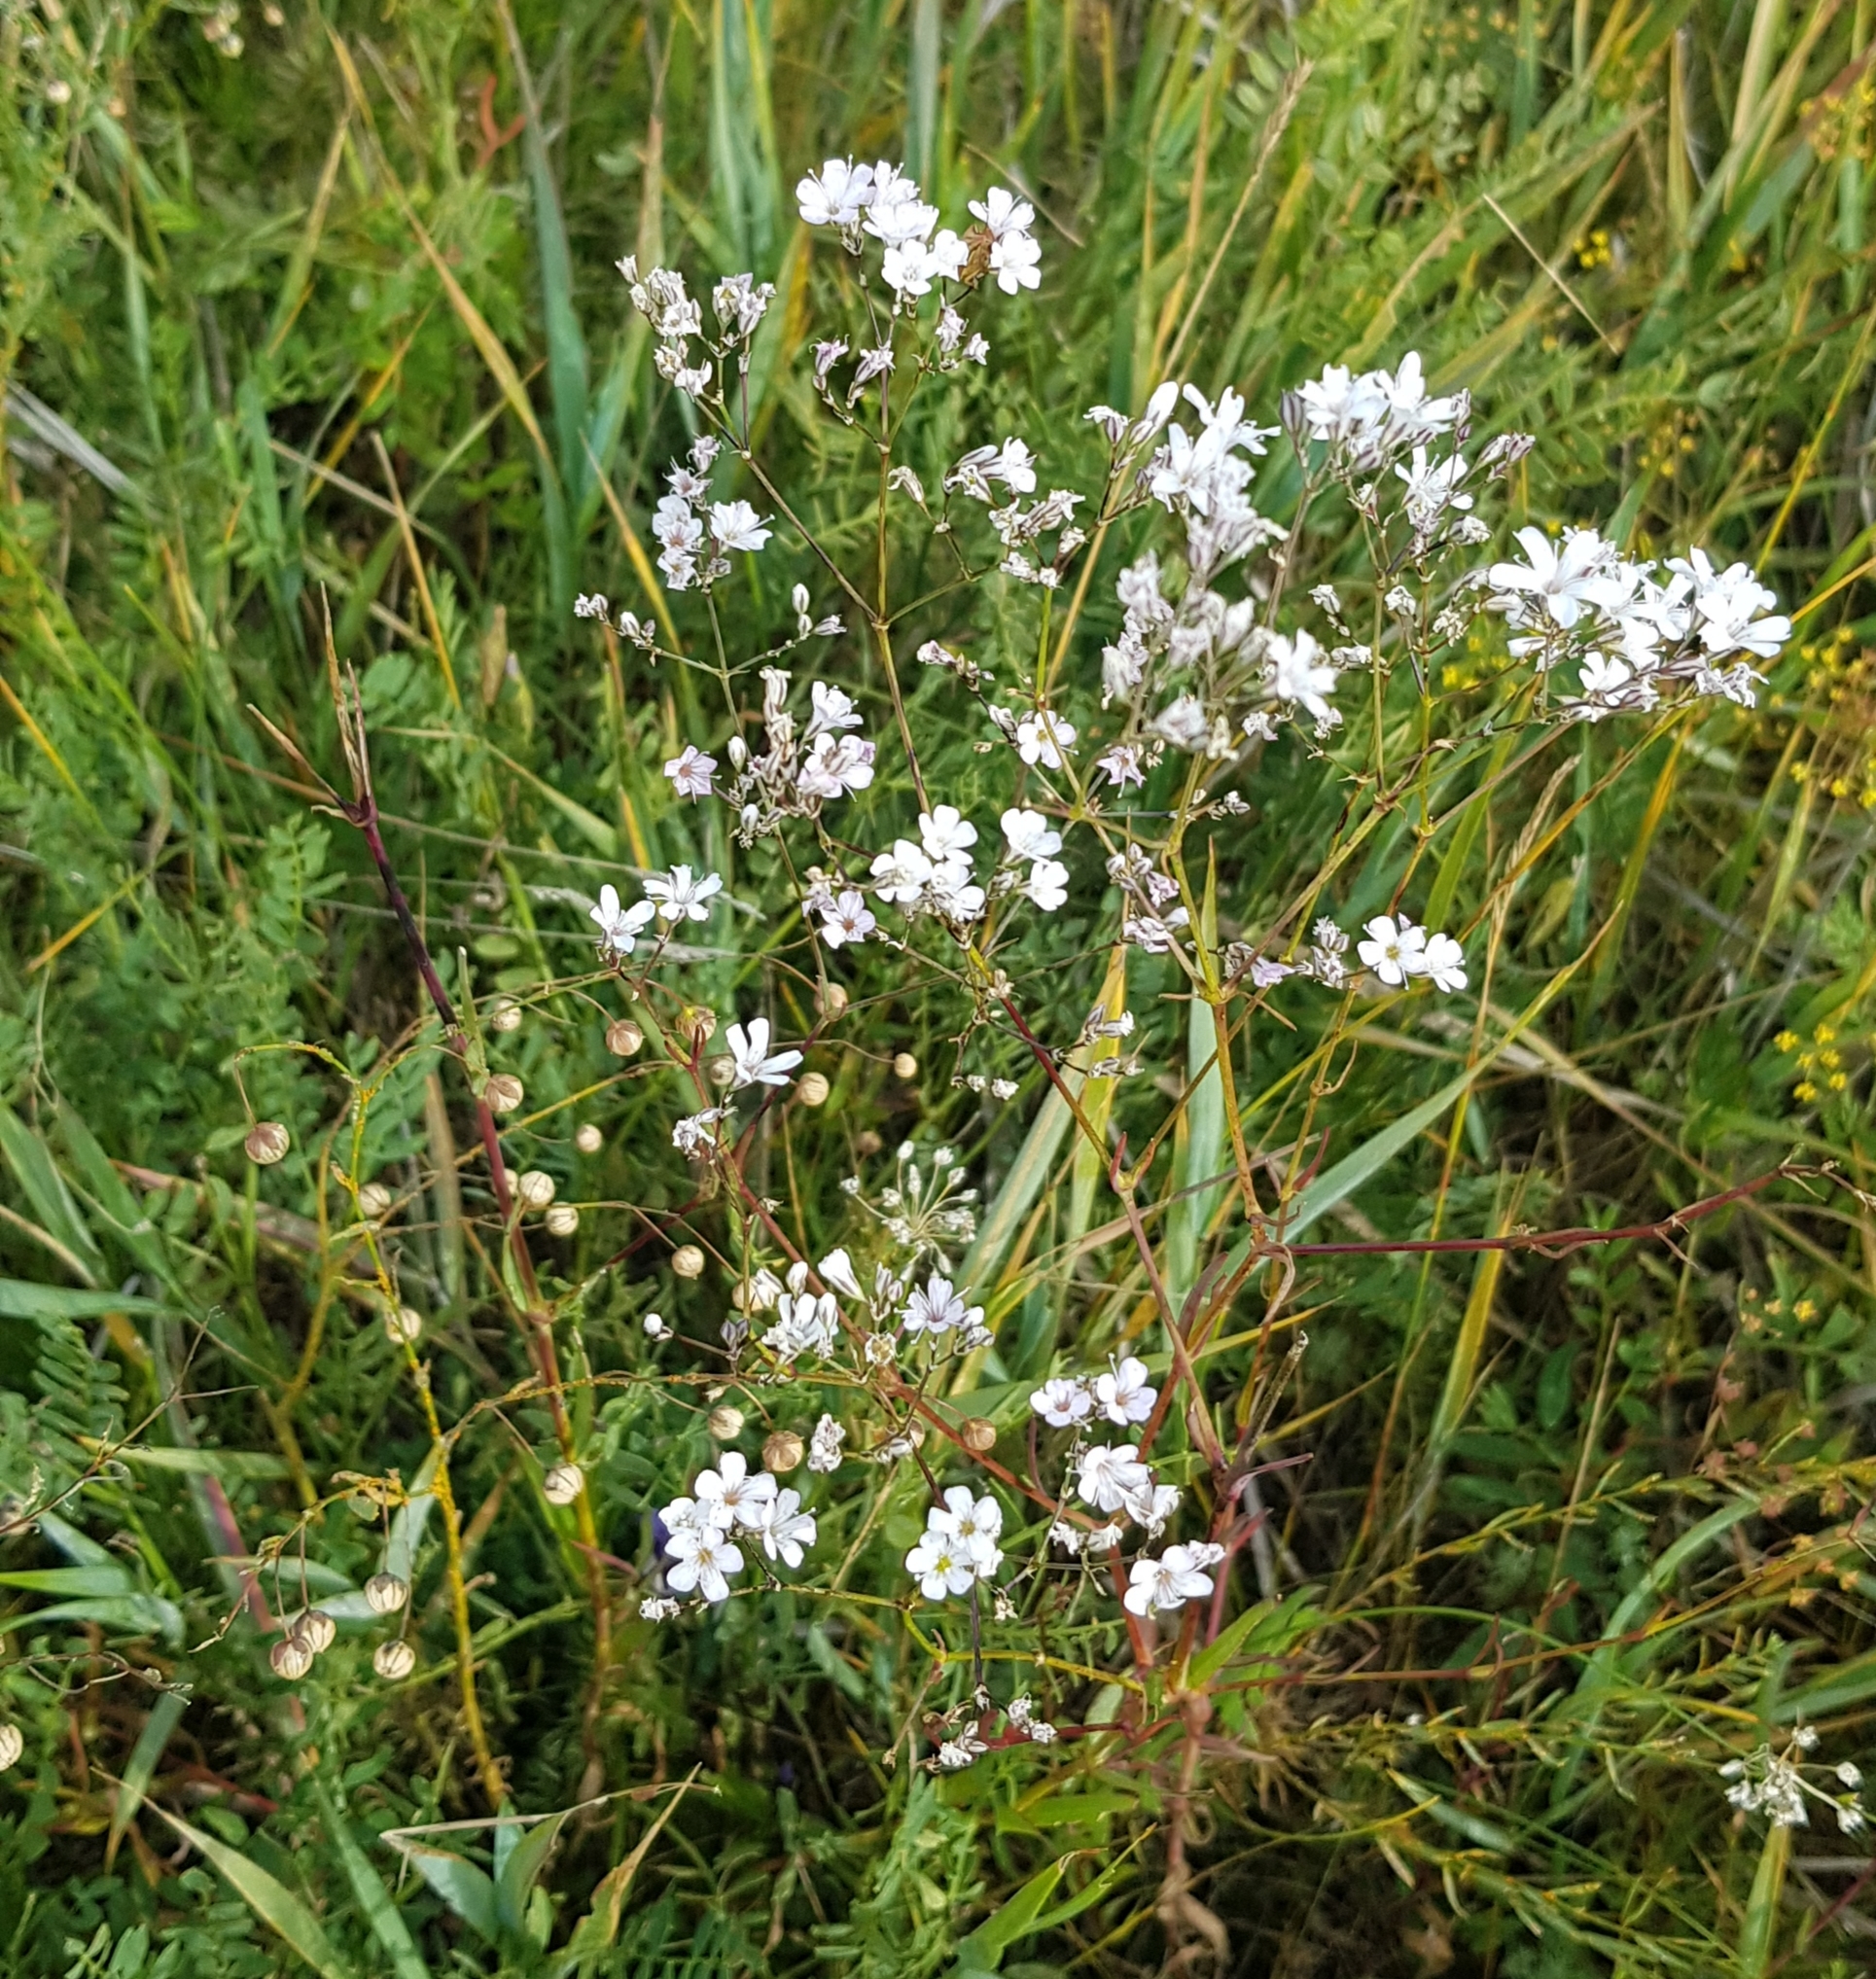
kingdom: Plantae
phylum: Tracheophyta
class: Magnoliopsida
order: Caryophyllales
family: Caryophyllaceae
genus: Gypsophila
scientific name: Gypsophila patrinii
